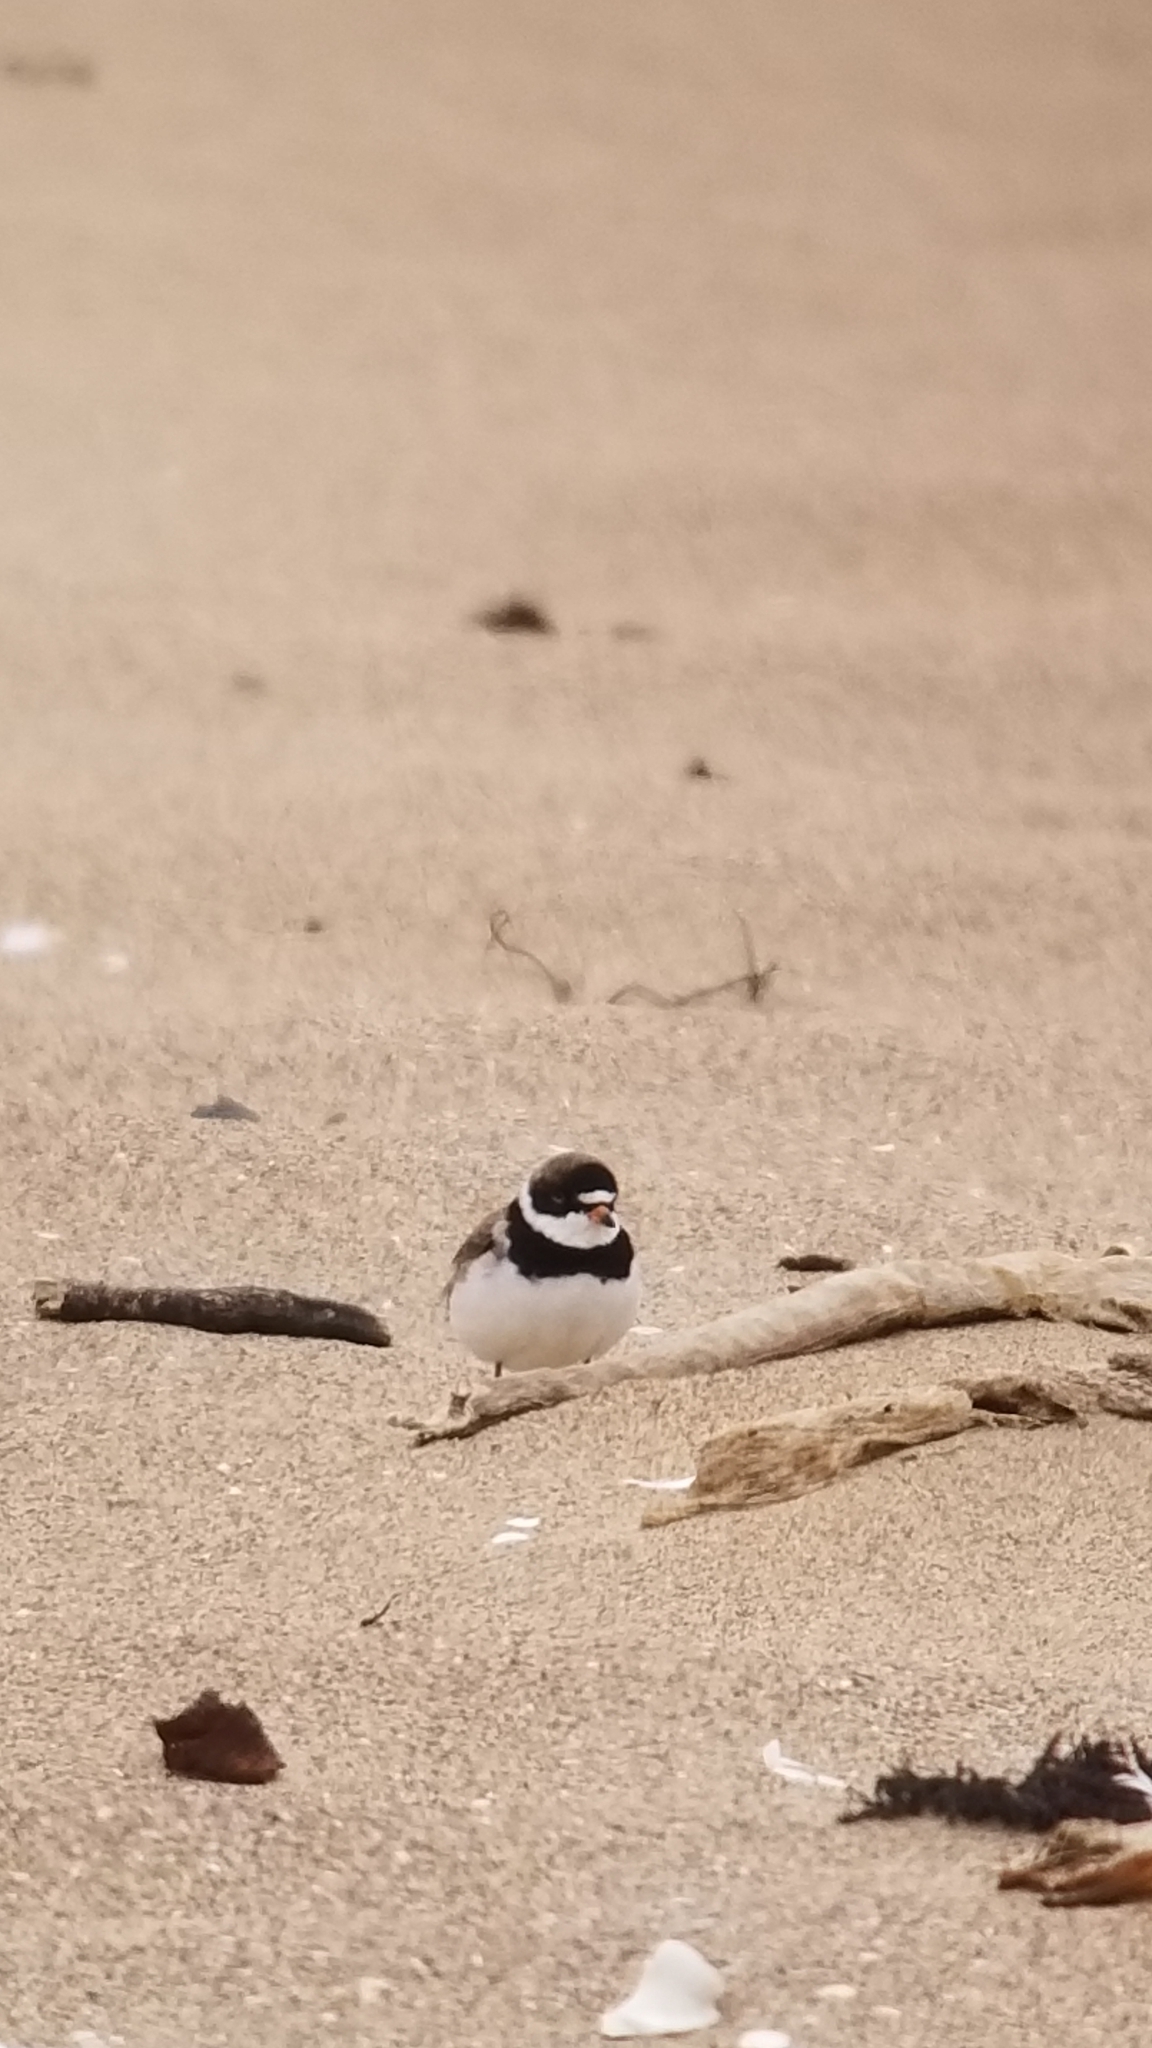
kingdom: Animalia
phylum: Chordata
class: Aves
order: Charadriiformes
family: Charadriidae
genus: Charadrius
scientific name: Charadrius semipalmatus
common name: Semipalmated plover
